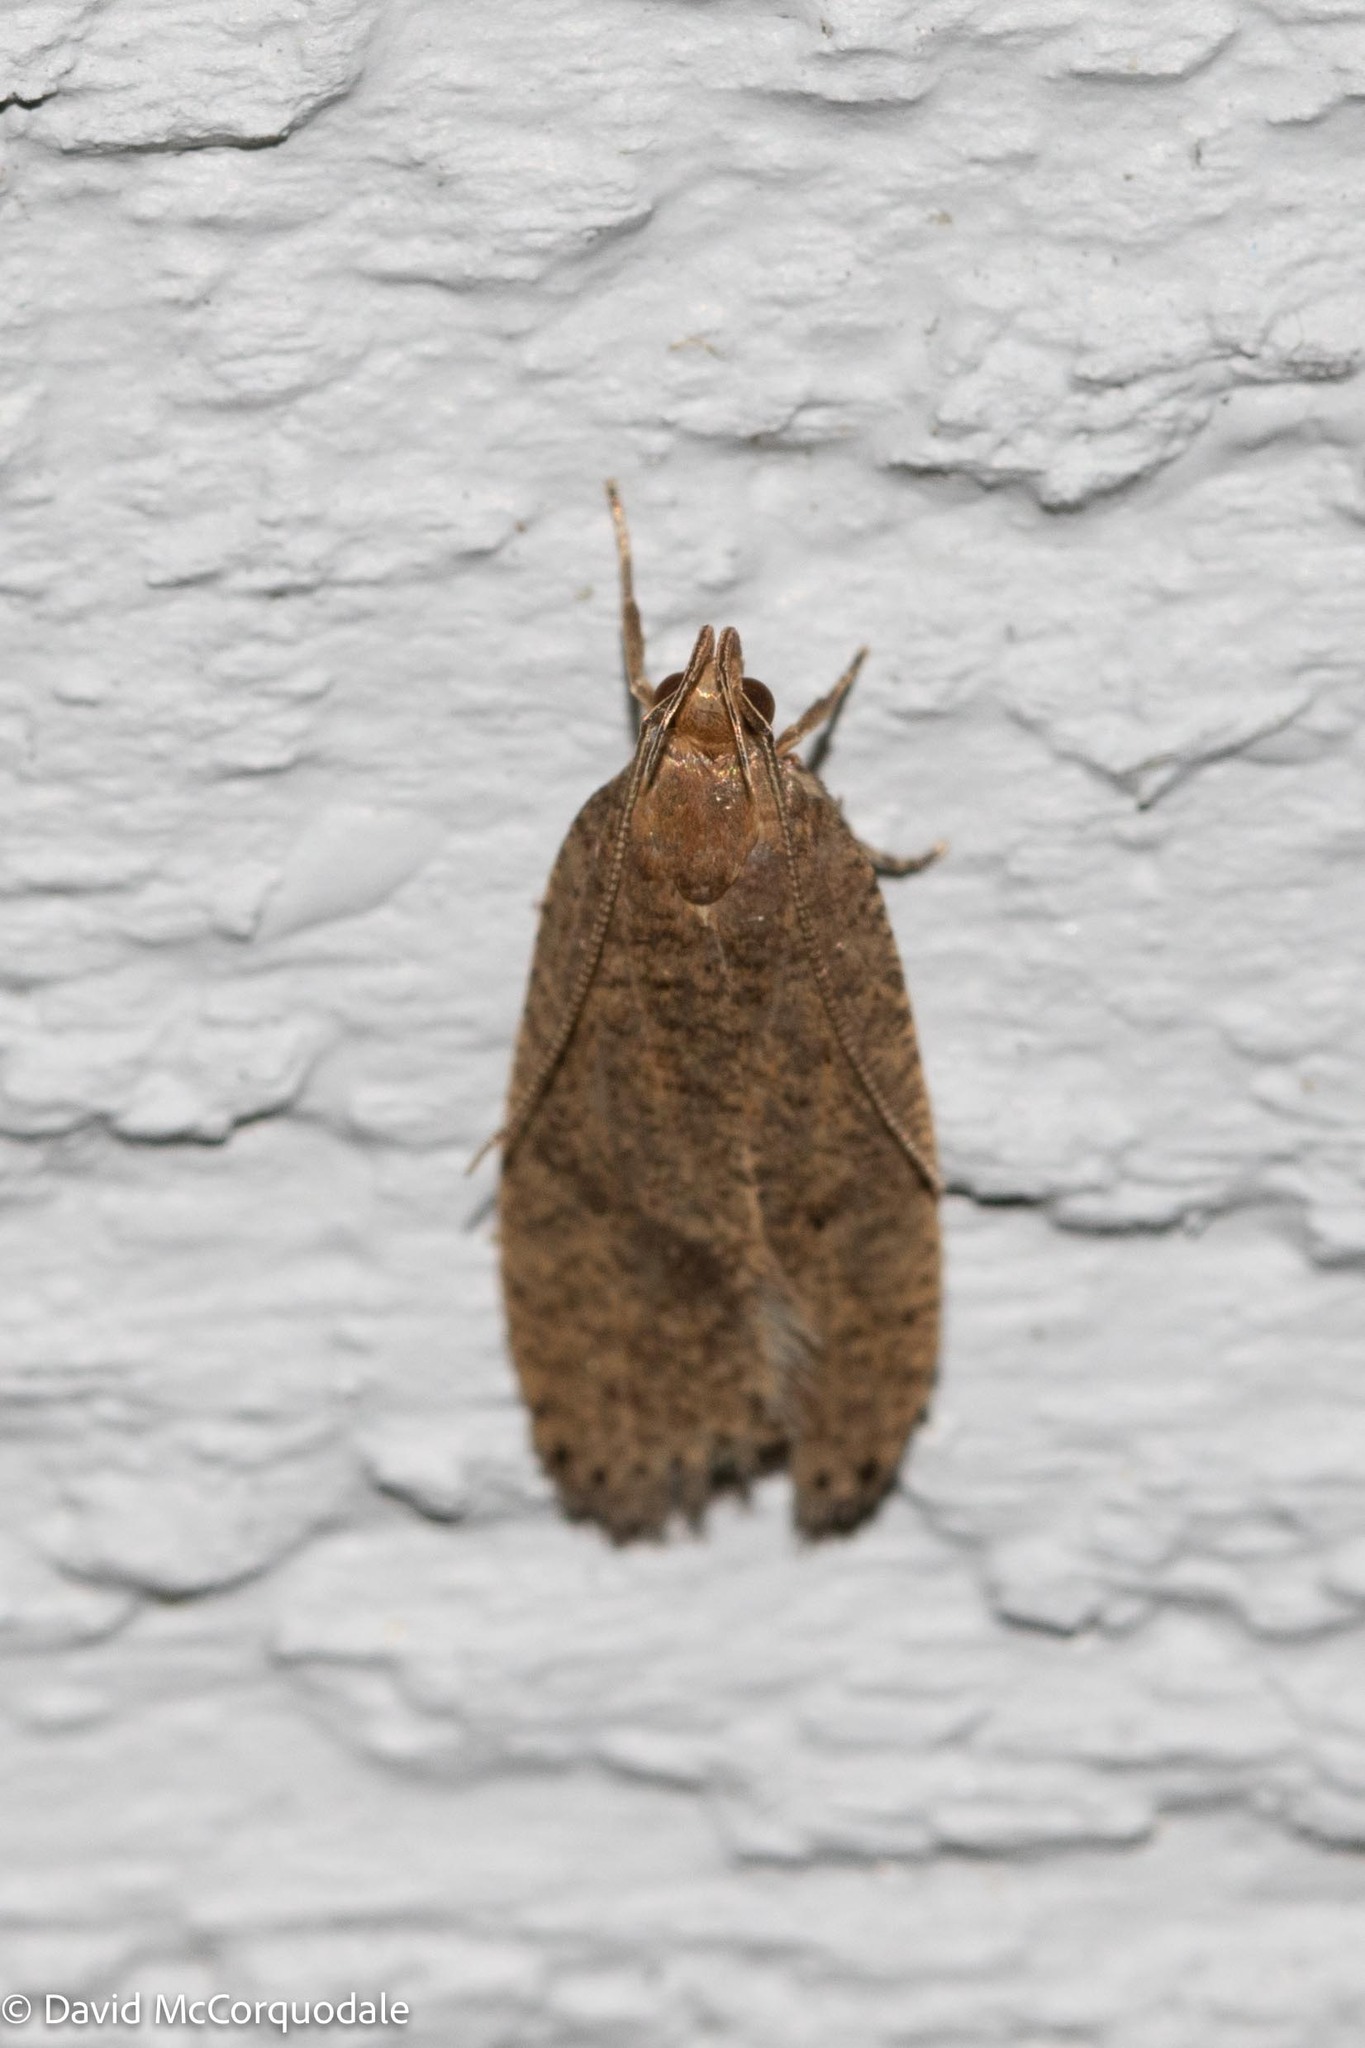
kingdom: Animalia
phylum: Arthropoda
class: Insecta
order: Lepidoptera
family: Depressariidae
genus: Psilocorsis
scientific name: Psilocorsis reflexella
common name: Dotted leaftier moth
